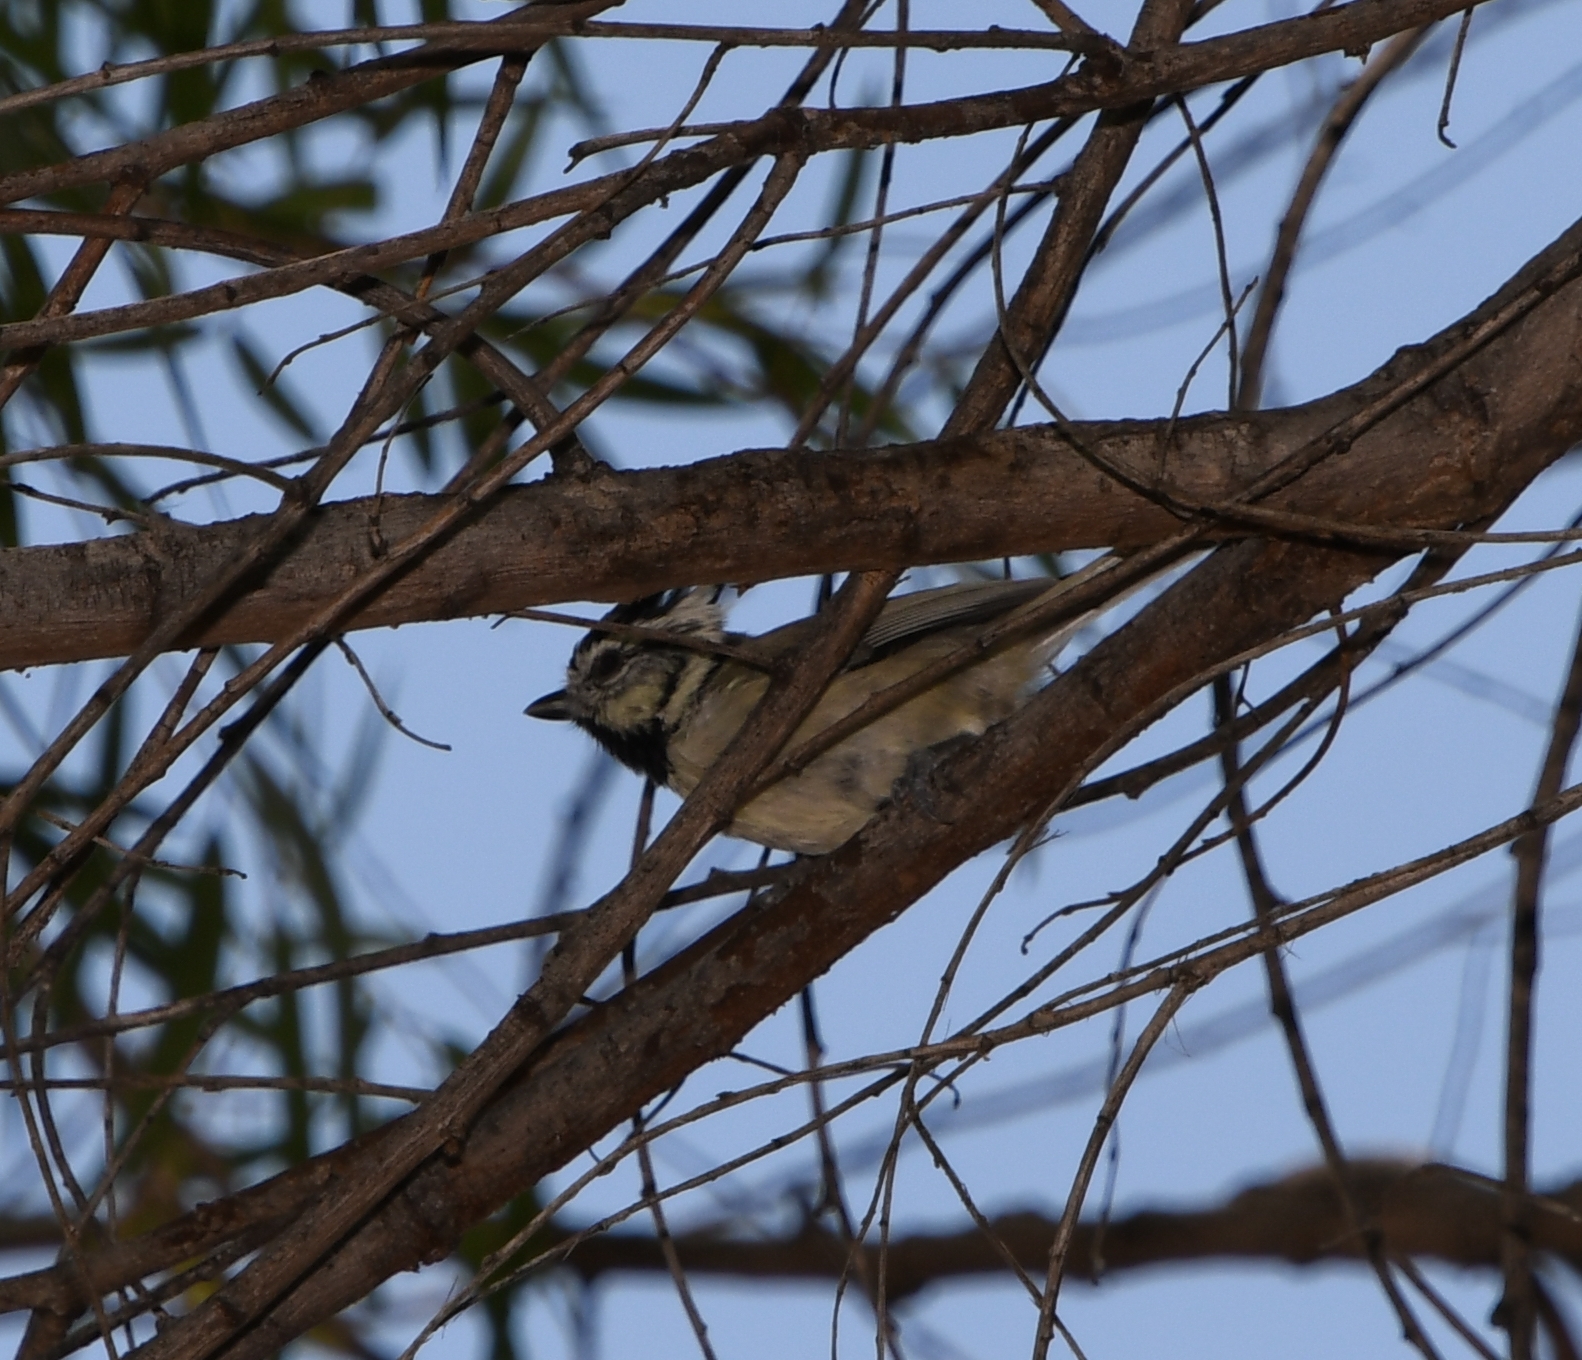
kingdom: Animalia
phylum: Chordata
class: Aves
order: Passeriformes
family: Paridae
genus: Baeolophus
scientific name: Baeolophus wollweberi
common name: Bridled titmouse
